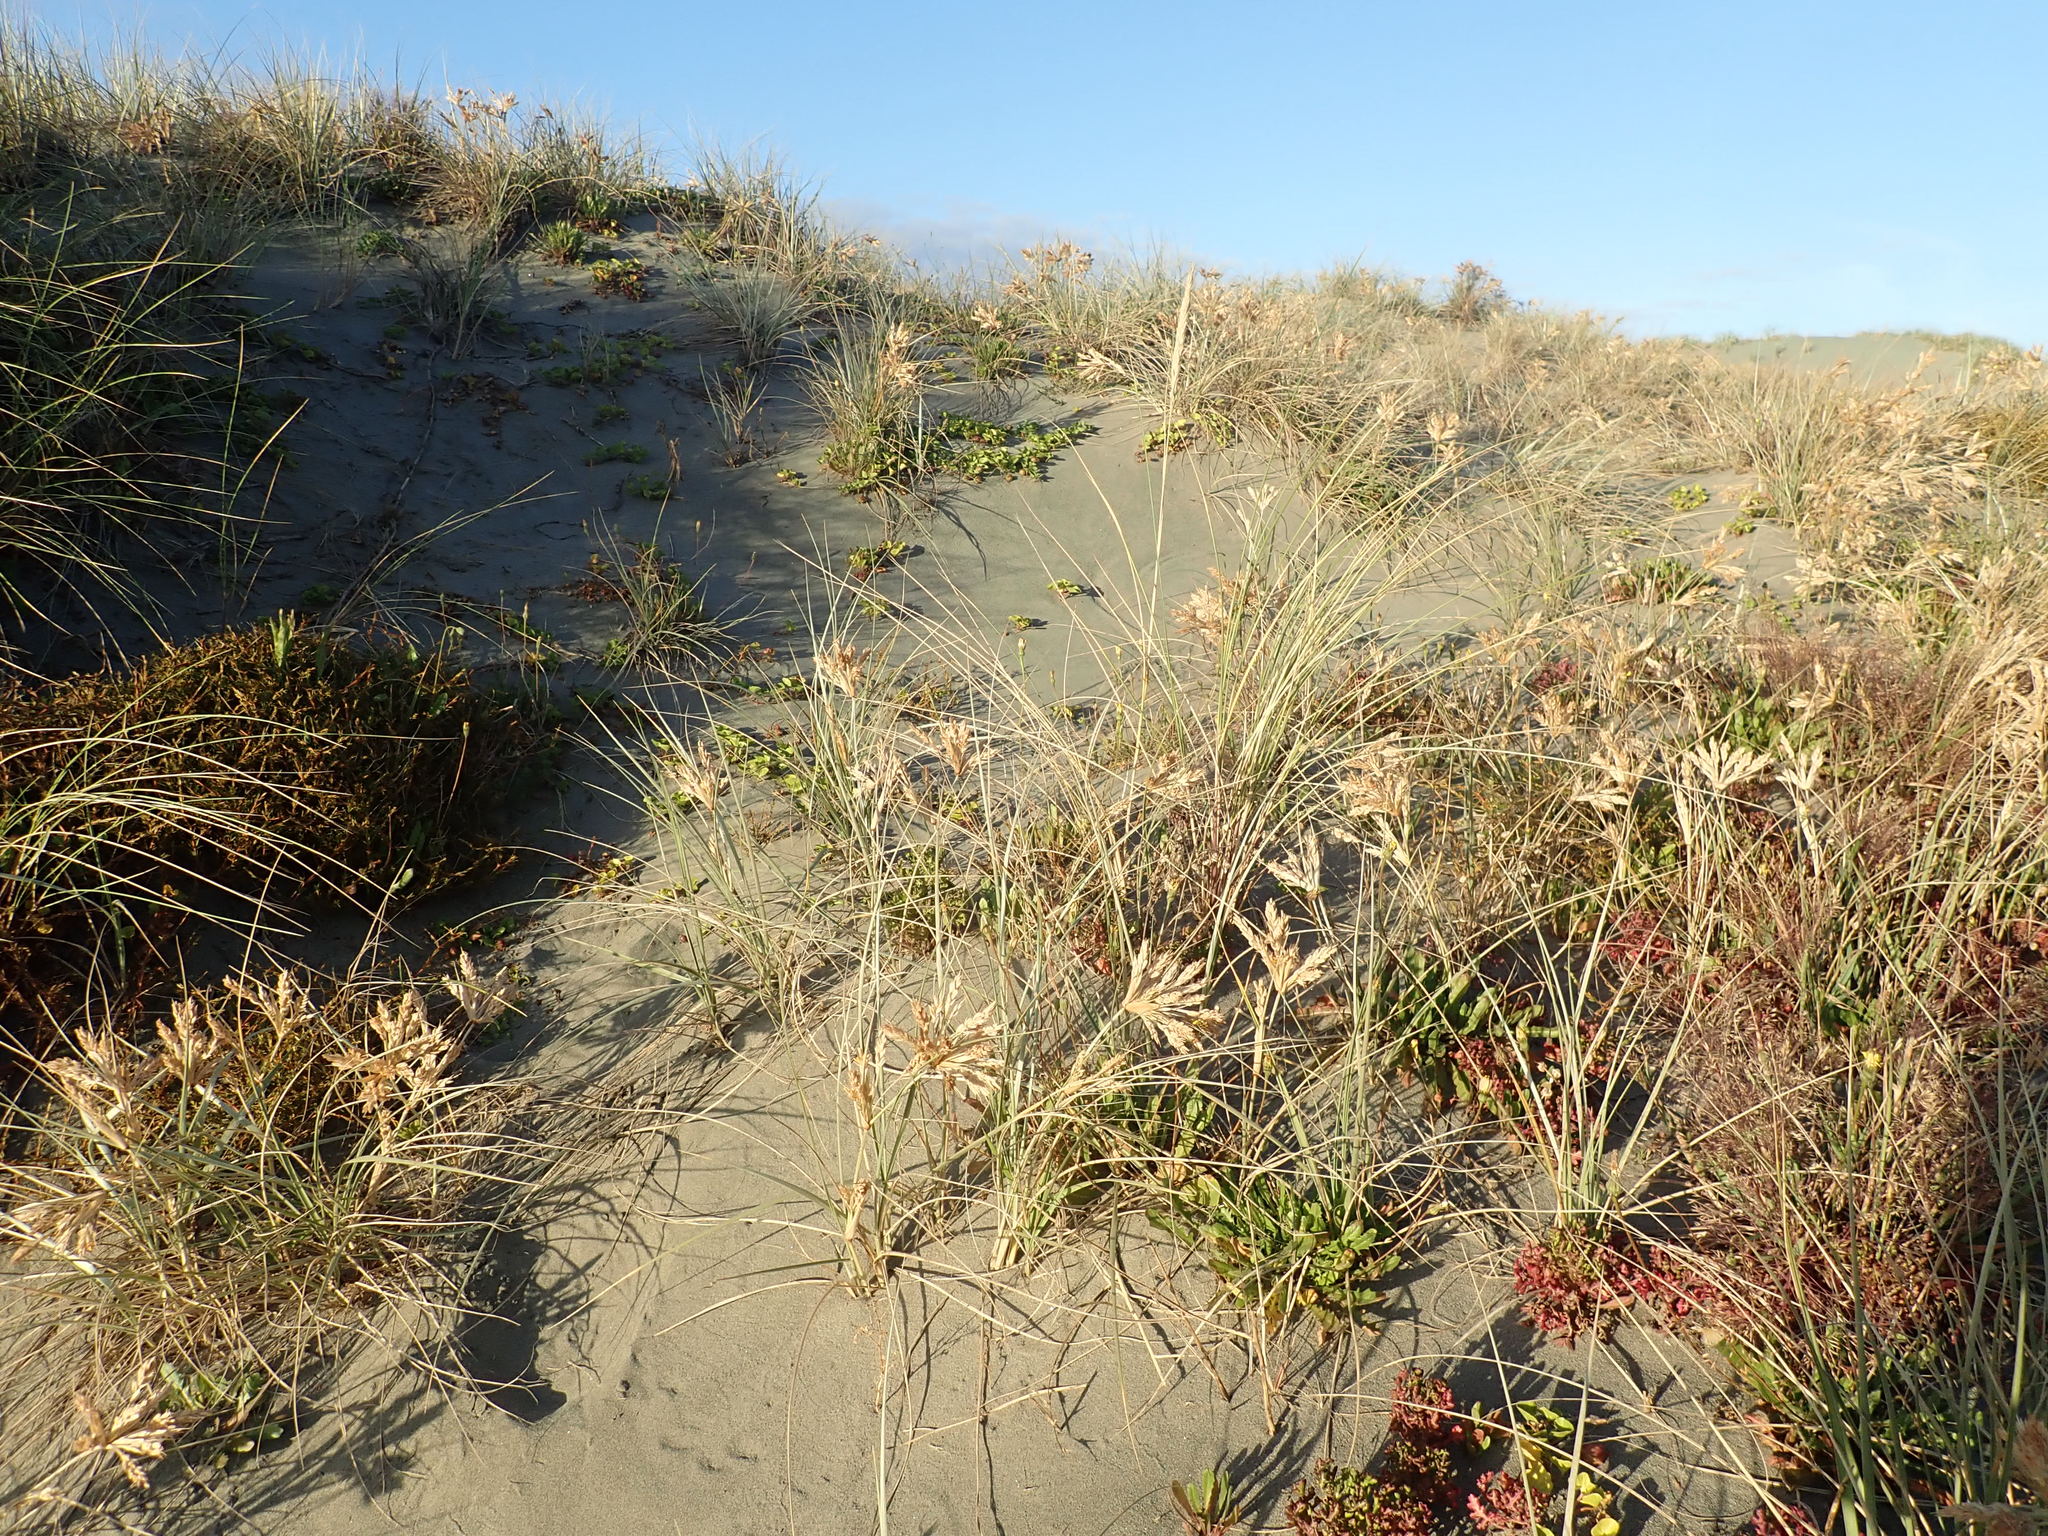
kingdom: Plantae
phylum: Tracheophyta
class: Liliopsida
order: Poales
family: Poaceae
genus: Spinifex
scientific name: Spinifex sericeus
